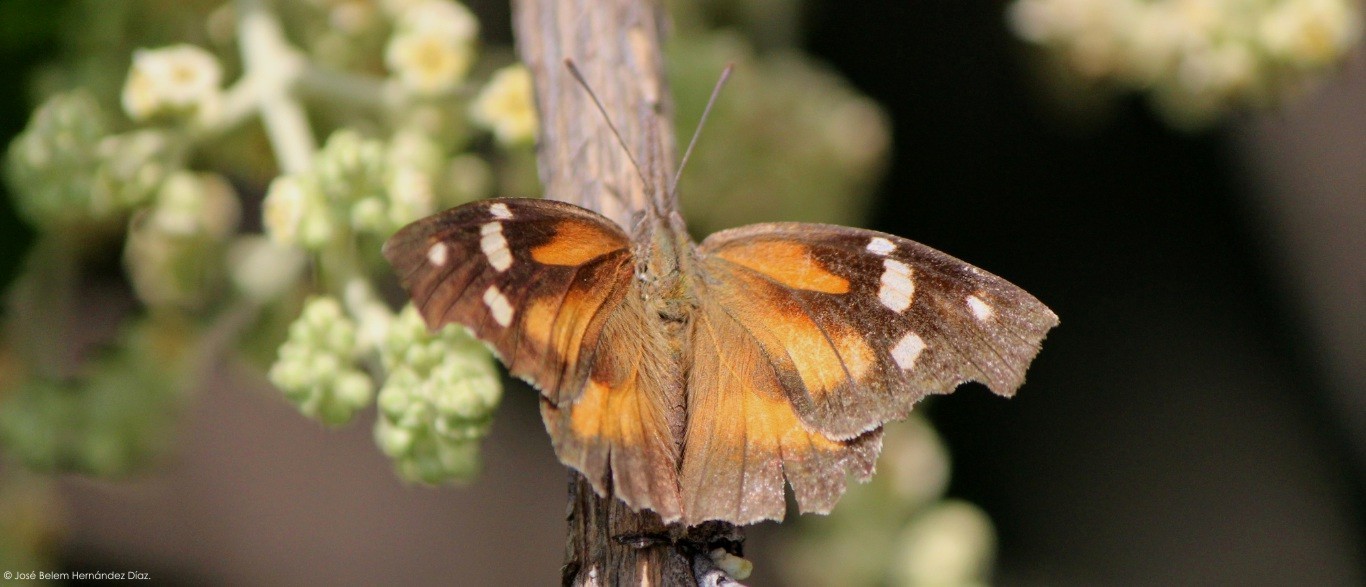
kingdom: Animalia
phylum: Arthropoda
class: Insecta
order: Lepidoptera
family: Nymphalidae
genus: Libytheana
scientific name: Libytheana carinenta
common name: American snout
